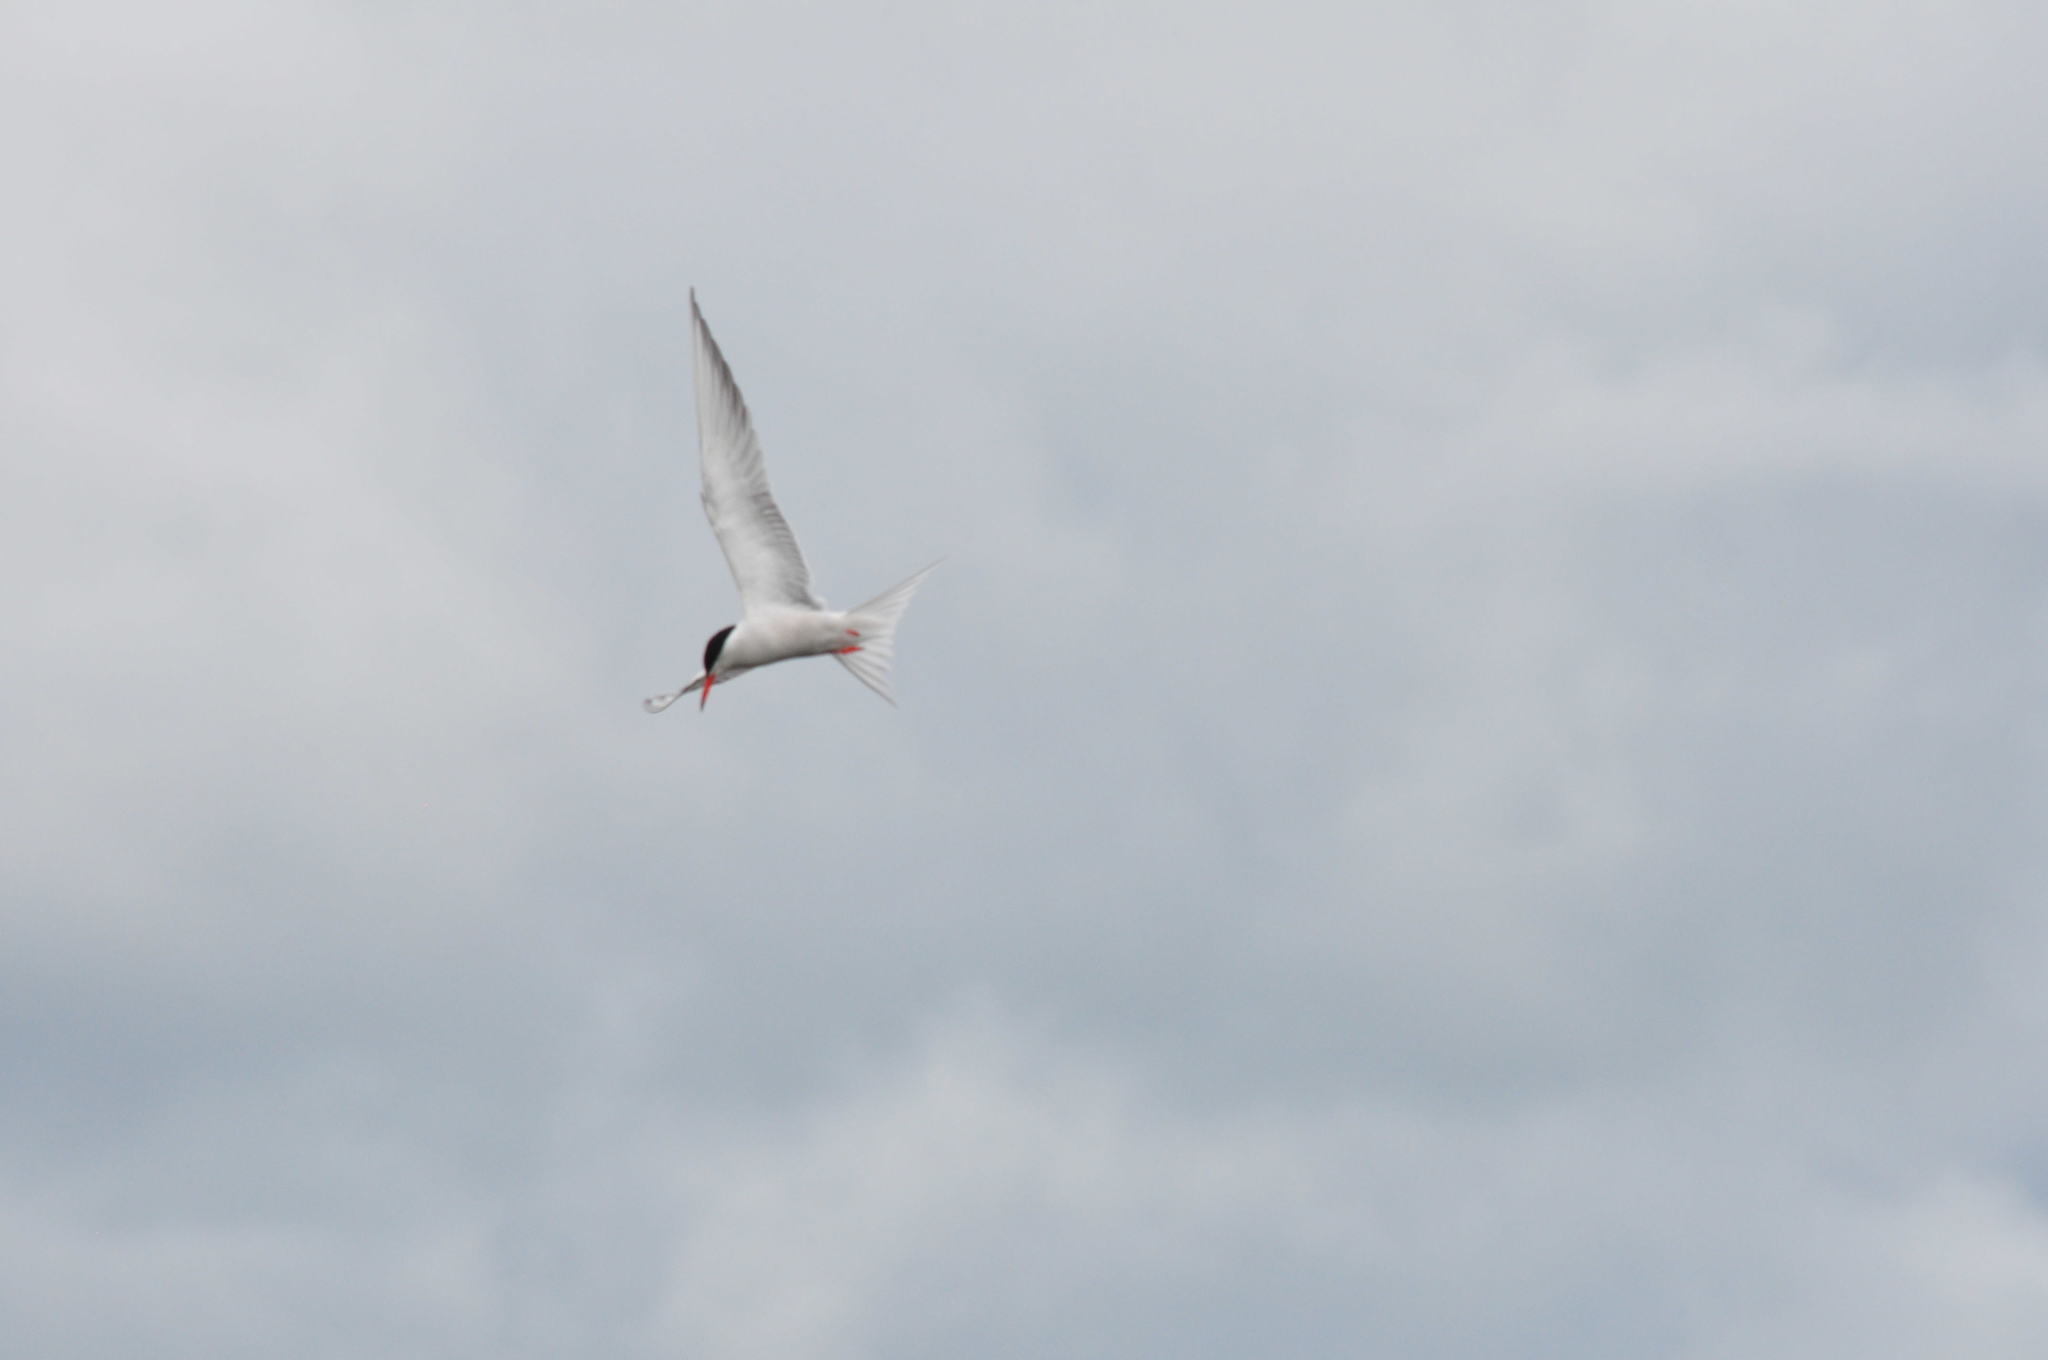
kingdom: Animalia
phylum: Chordata
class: Aves
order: Charadriiformes
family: Laridae
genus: Sterna
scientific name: Sterna hirundo
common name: Common tern
